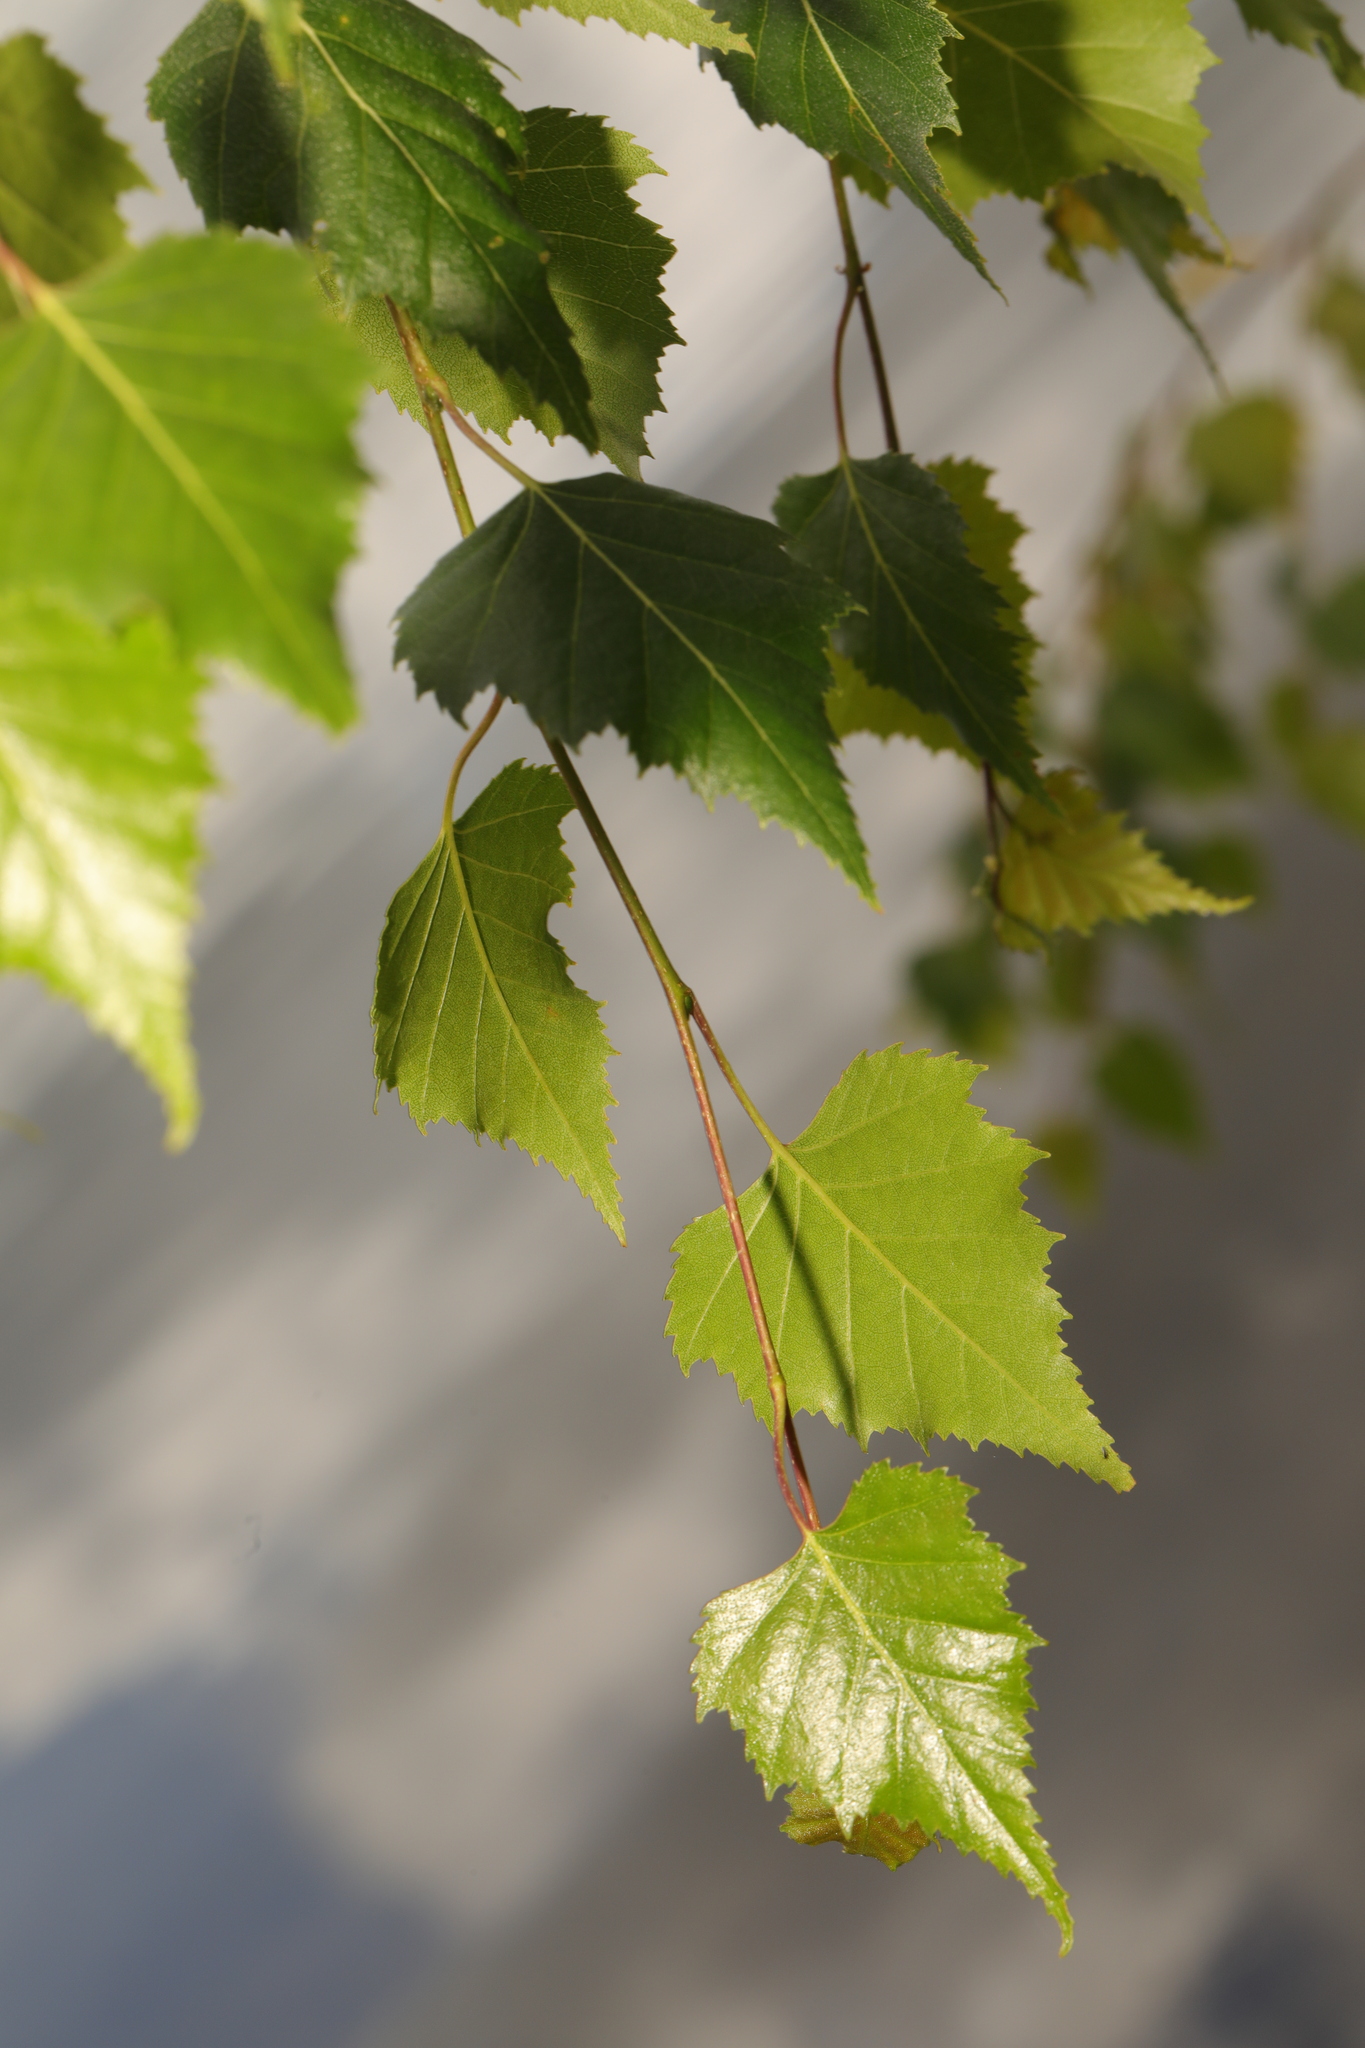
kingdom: Plantae
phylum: Tracheophyta
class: Magnoliopsida
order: Fagales
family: Betulaceae
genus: Betula
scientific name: Betula pendula
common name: Silver birch
